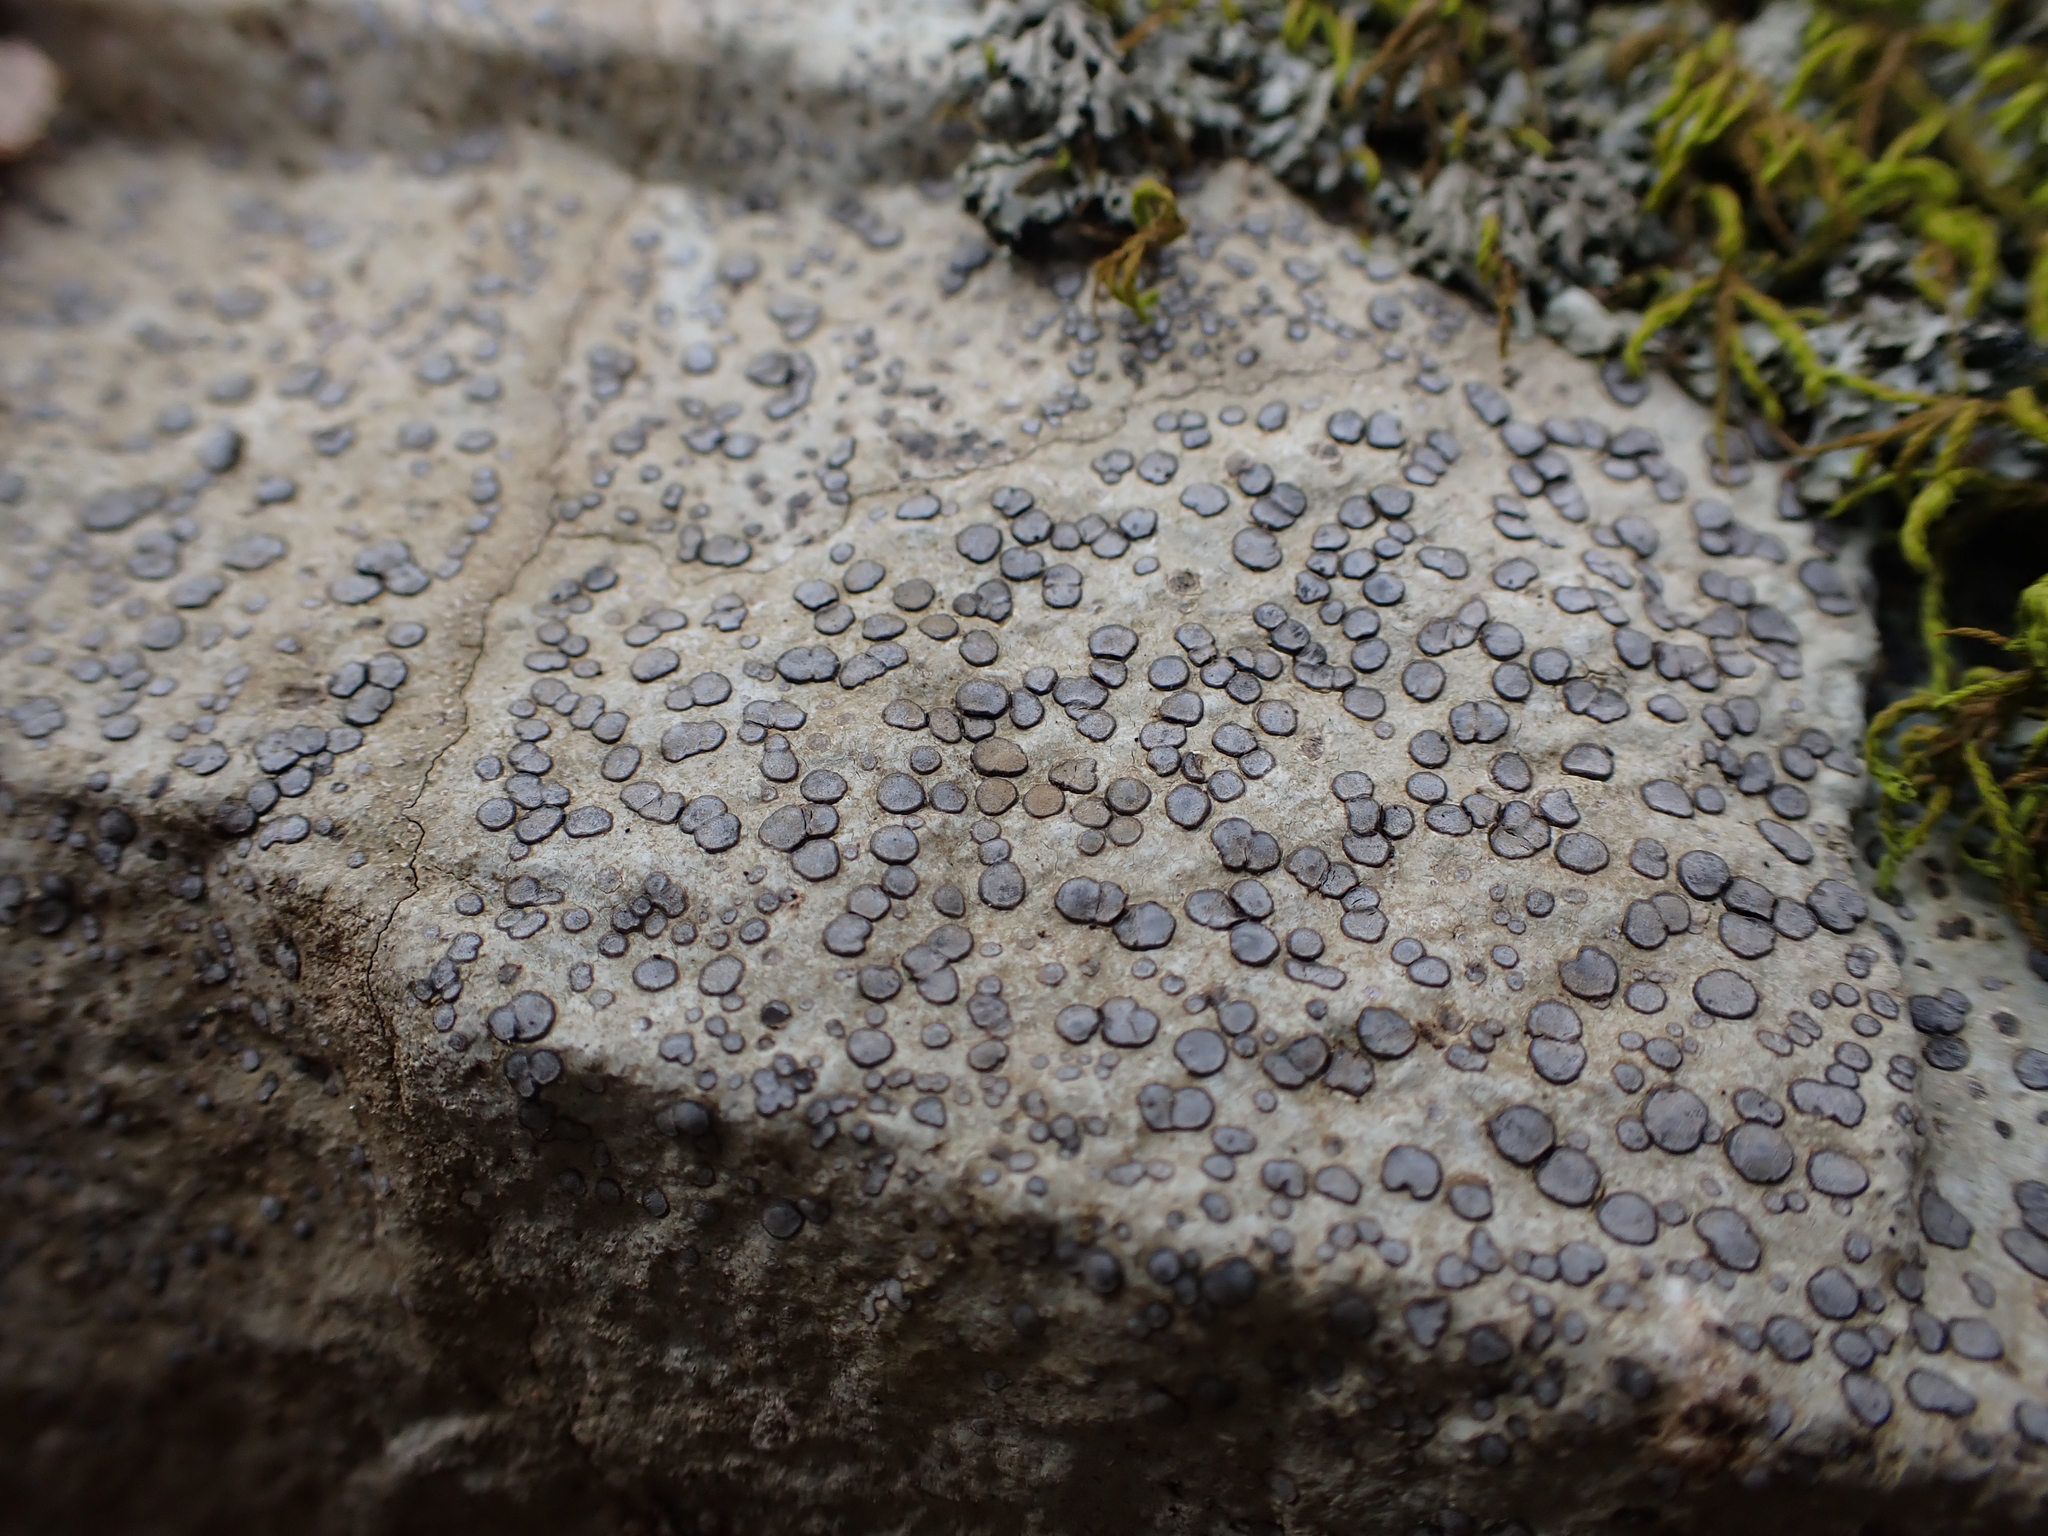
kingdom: Fungi
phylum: Ascomycota
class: Lecanoromycetes
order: Lecideales
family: Lecideaceae
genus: Porpidia
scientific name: Porpidia albocaerulescens
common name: Smokey-eyed boulder lichen
